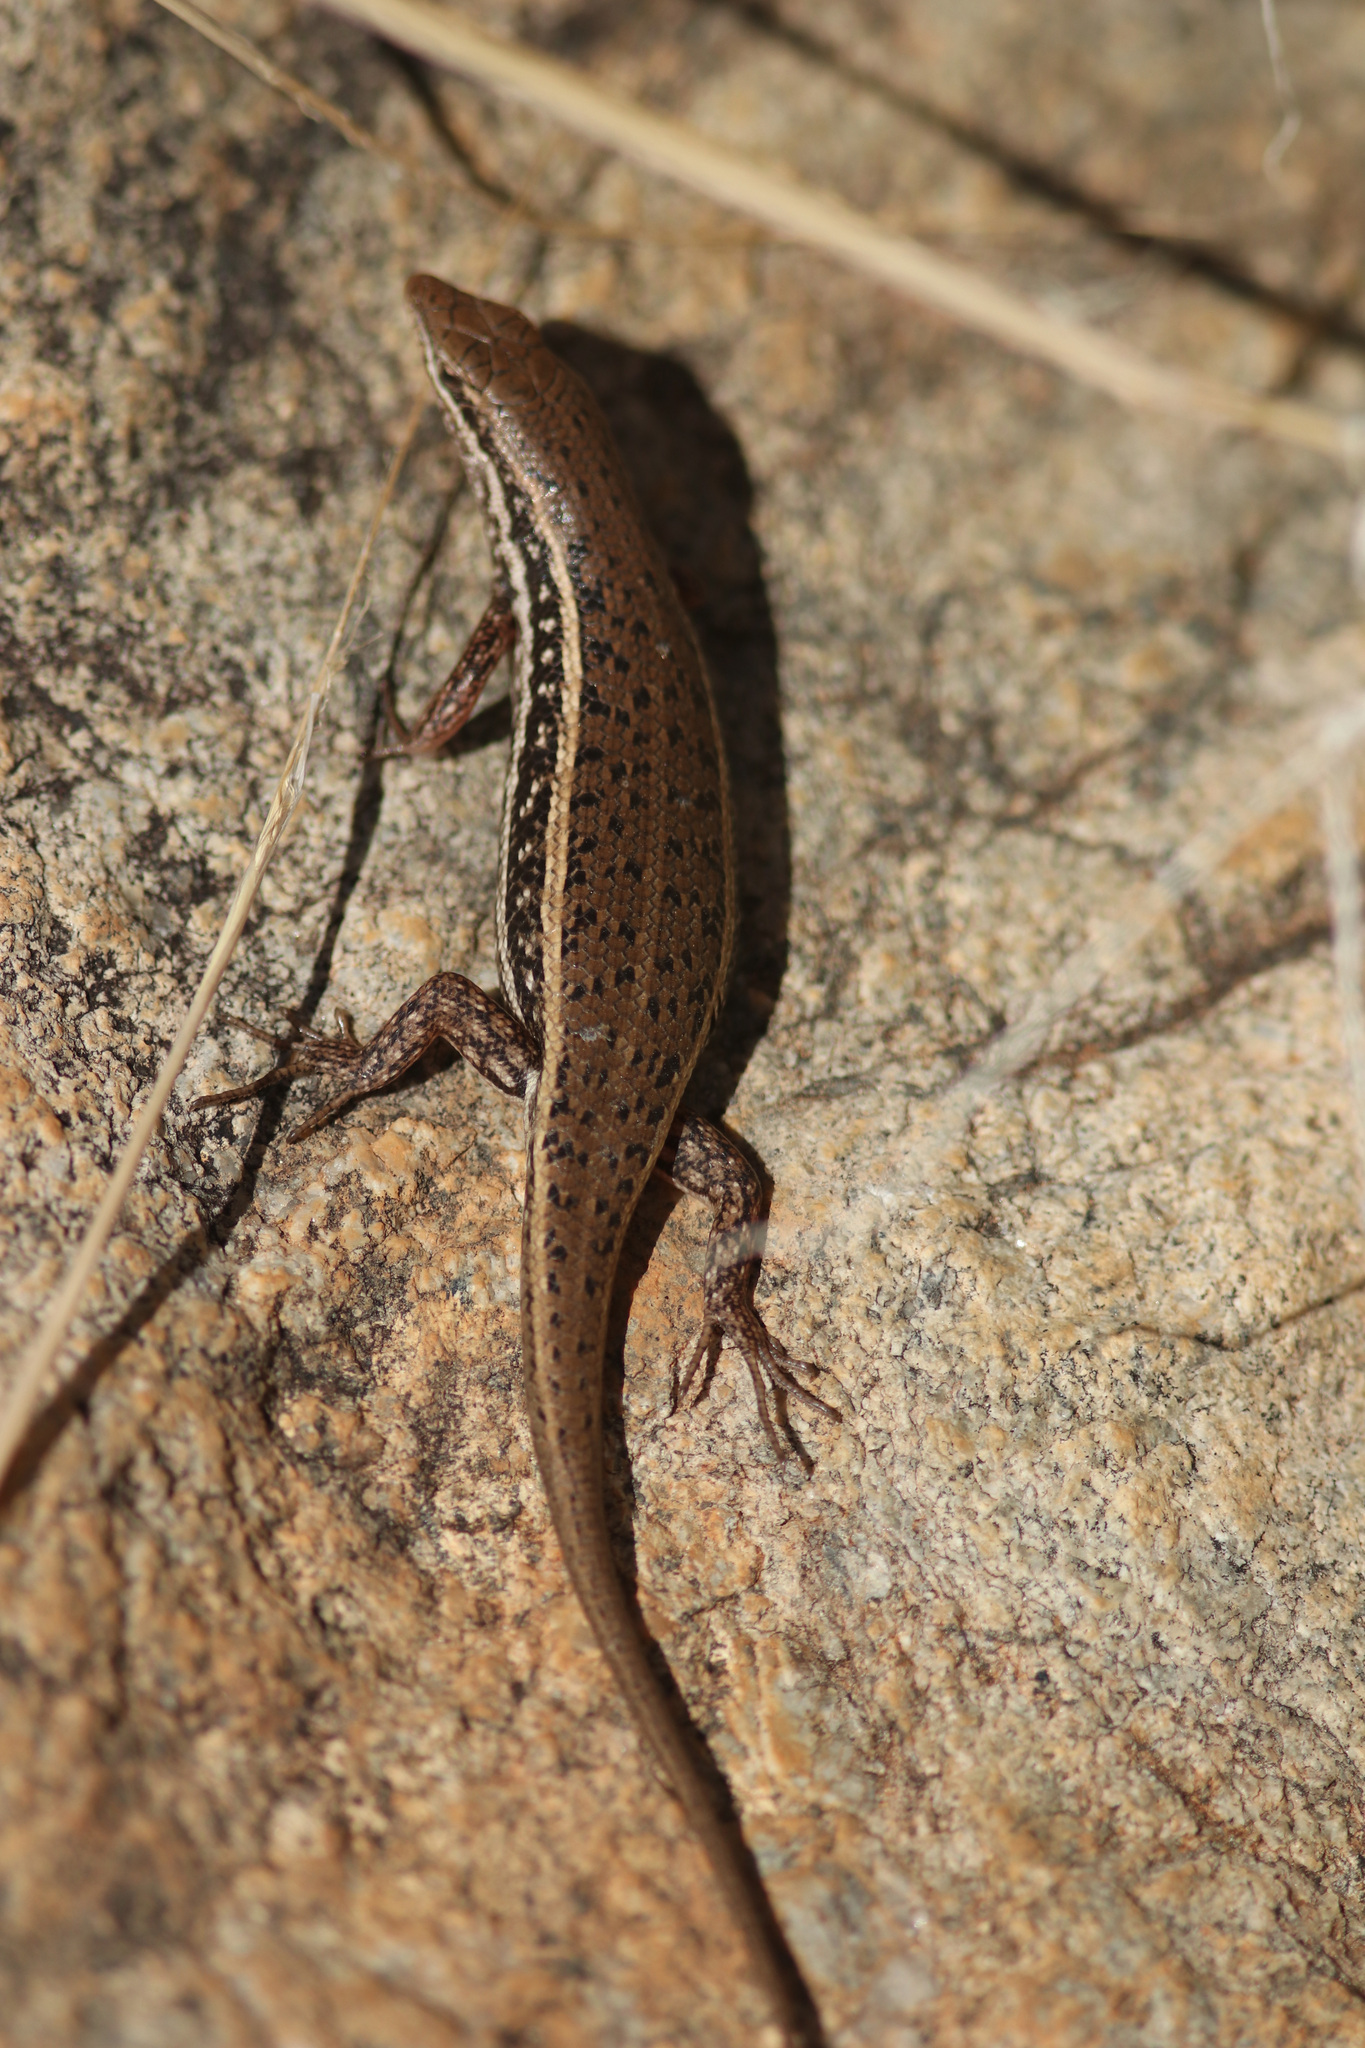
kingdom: Animalia
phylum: Chordata
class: Squamata
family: Scincidae
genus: Trachylepis
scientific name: Trachylepis variegata
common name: Variegated skink
